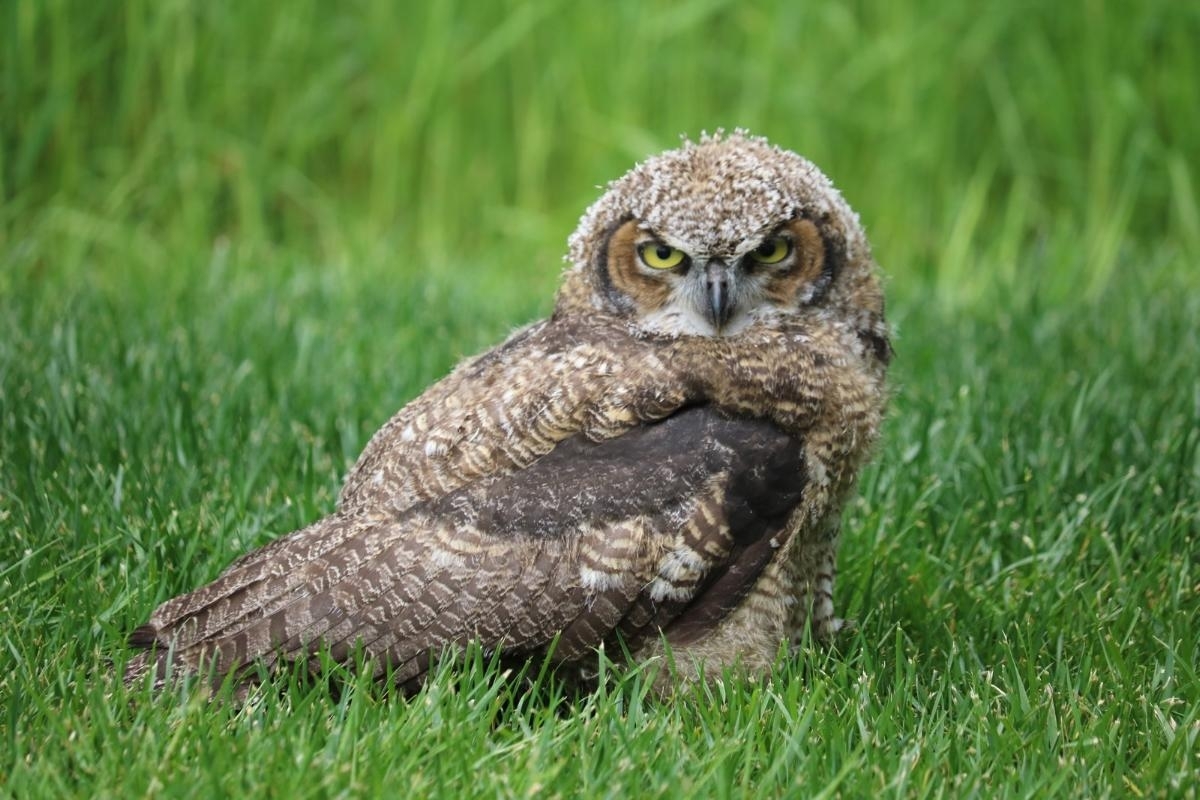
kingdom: Animalia
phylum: Chordata
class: Aves
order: Strigiformes
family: Strigidae
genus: Bubo
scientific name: Bubo virginianus
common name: Great horned owl
